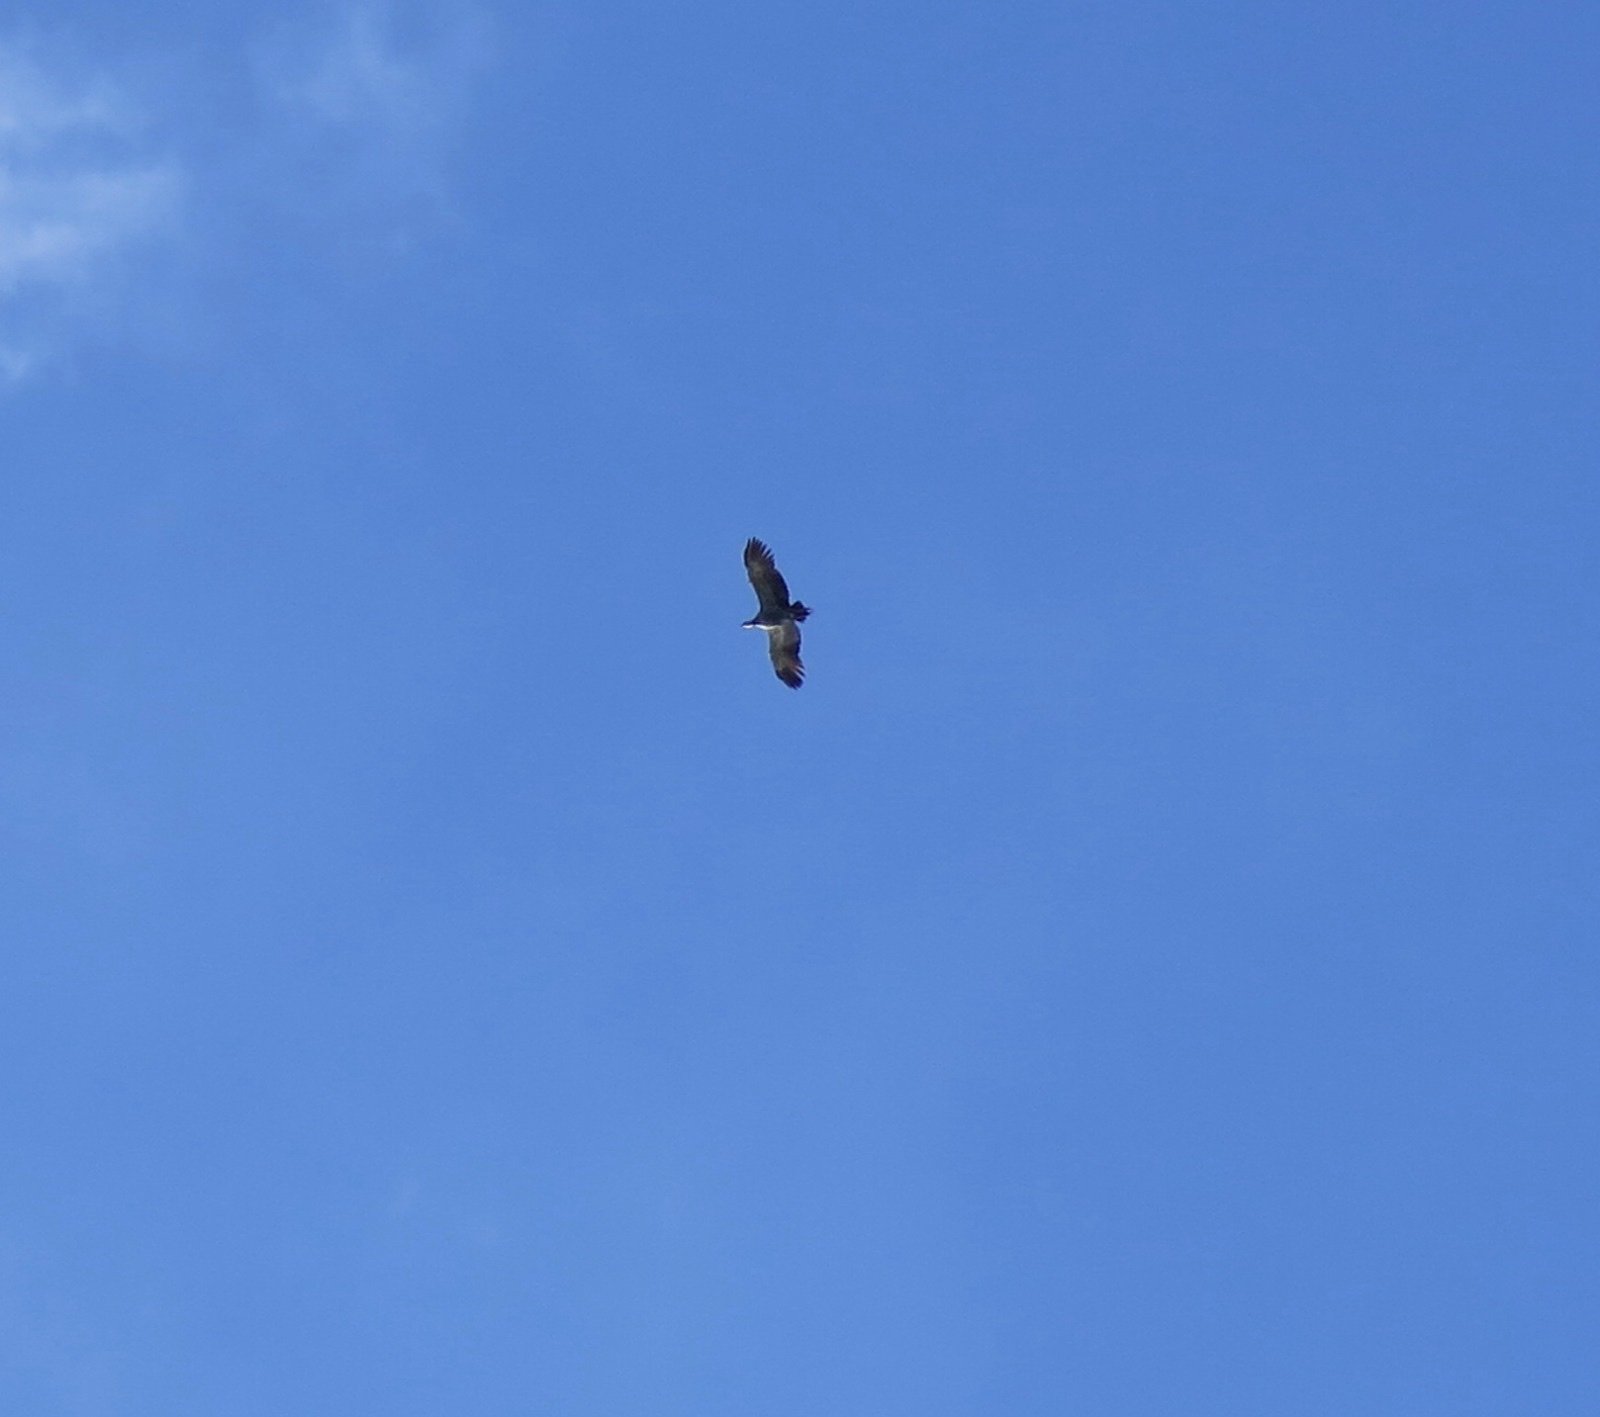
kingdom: Animalia
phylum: Chordata
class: Aves
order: Anseriformes
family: Anhimidae
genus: Chauna
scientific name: Chauna torquata
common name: Southern screamer
